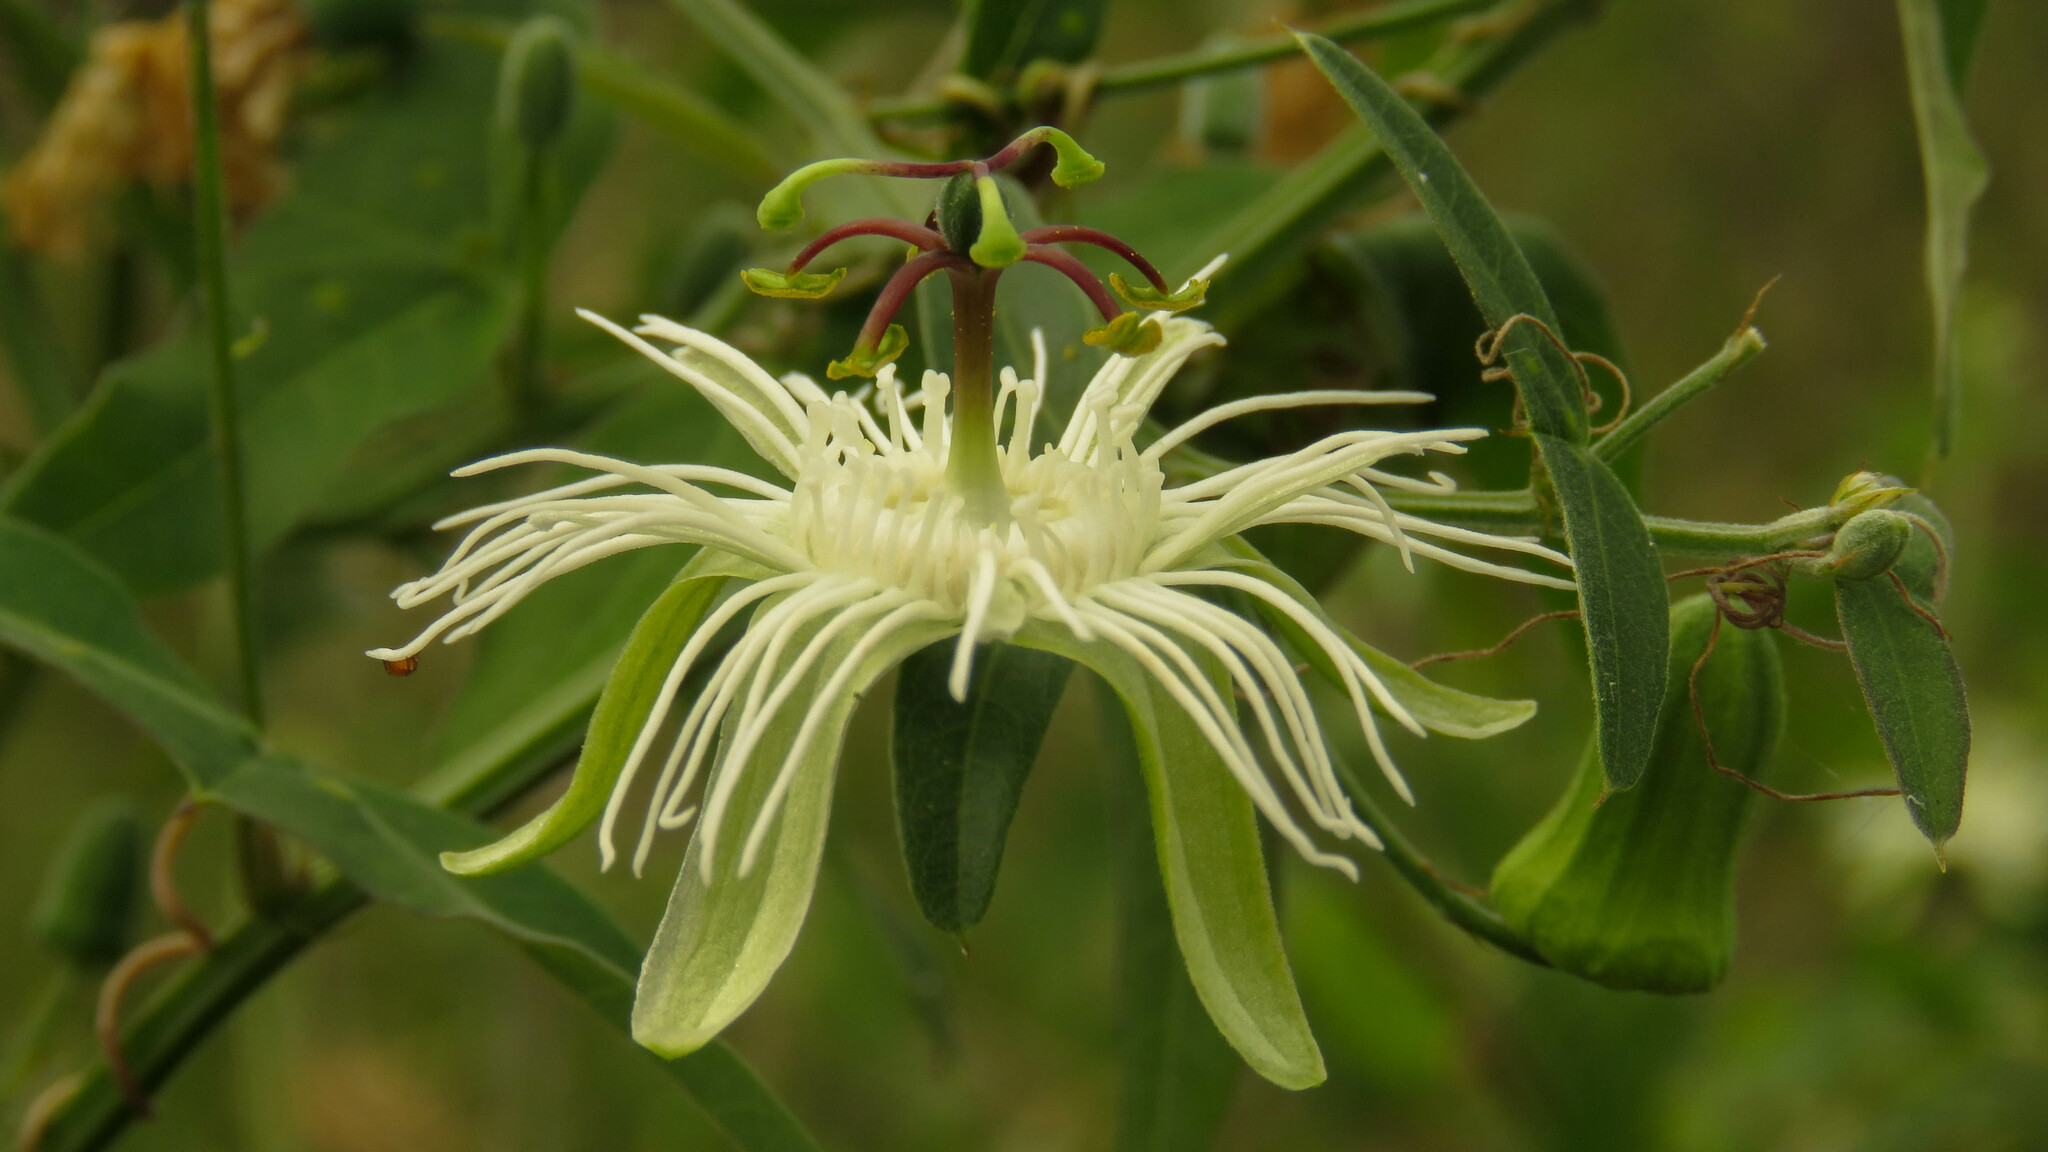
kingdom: Plantae
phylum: Tracheophyta
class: Magnoliopsida
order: Malpighiales
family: Passifloraceae
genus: Passiflora
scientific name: Passiflora misera
